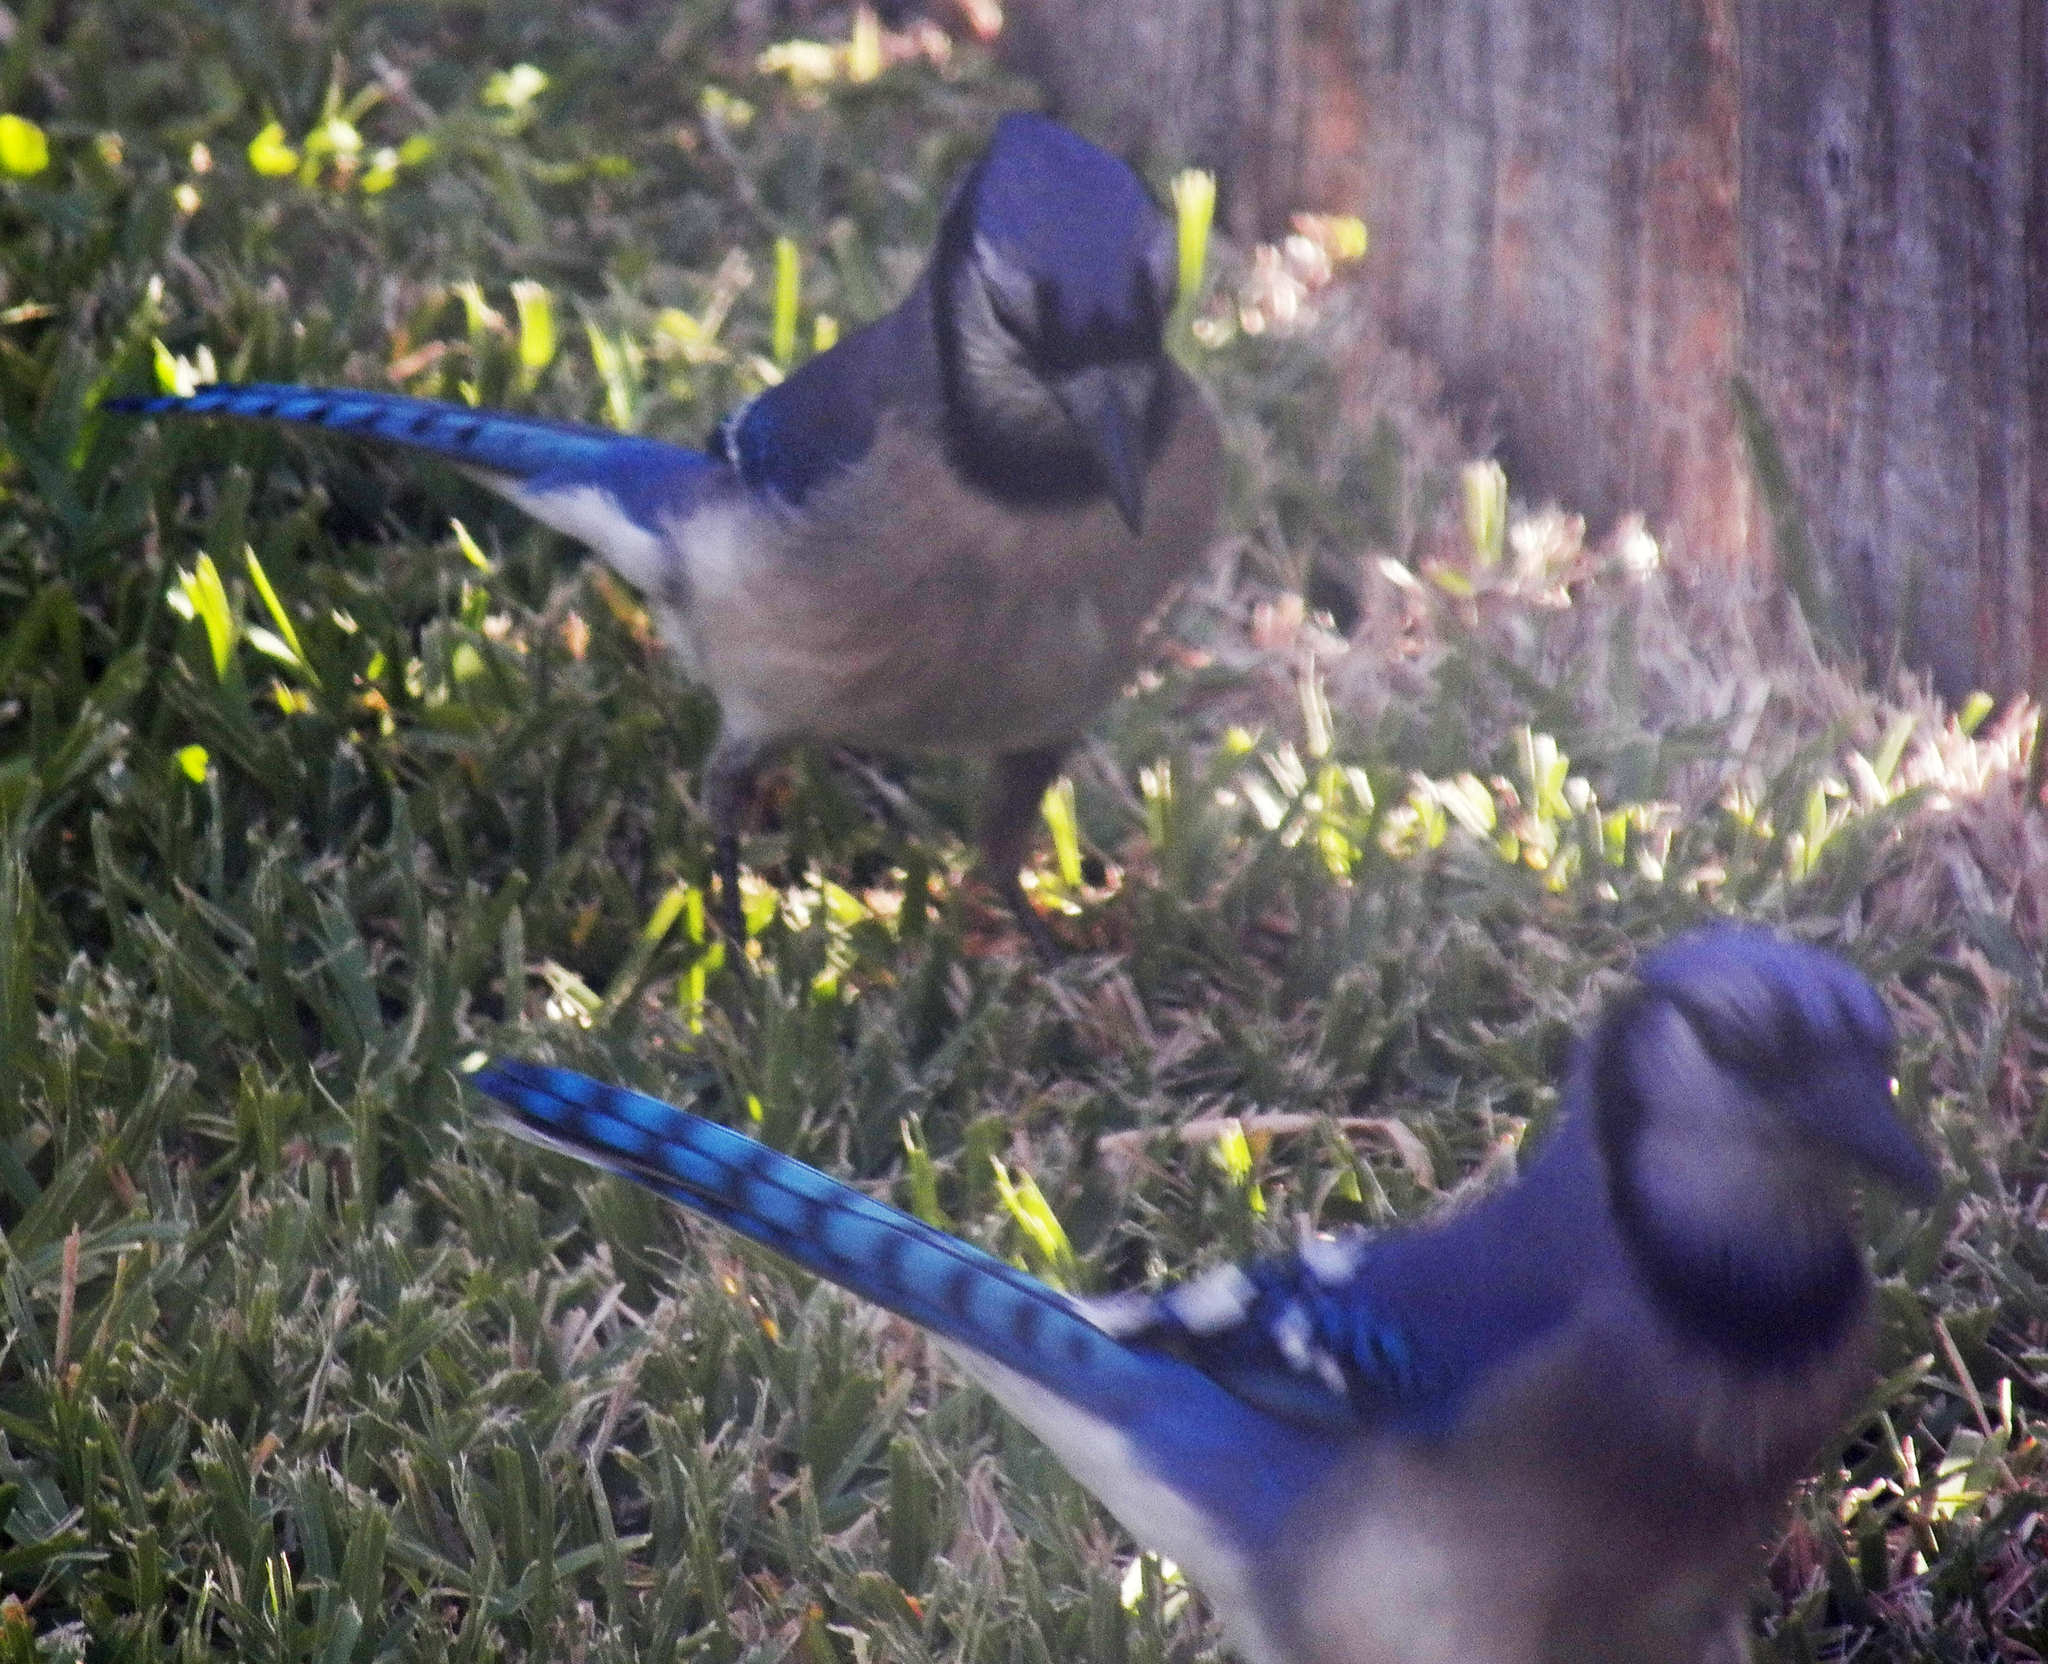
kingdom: Animalia
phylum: Chordata
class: Aves
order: Passeriformes
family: Corvidae
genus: Cyanocitta
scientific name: Cyanocitta cristata
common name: Blue jay
